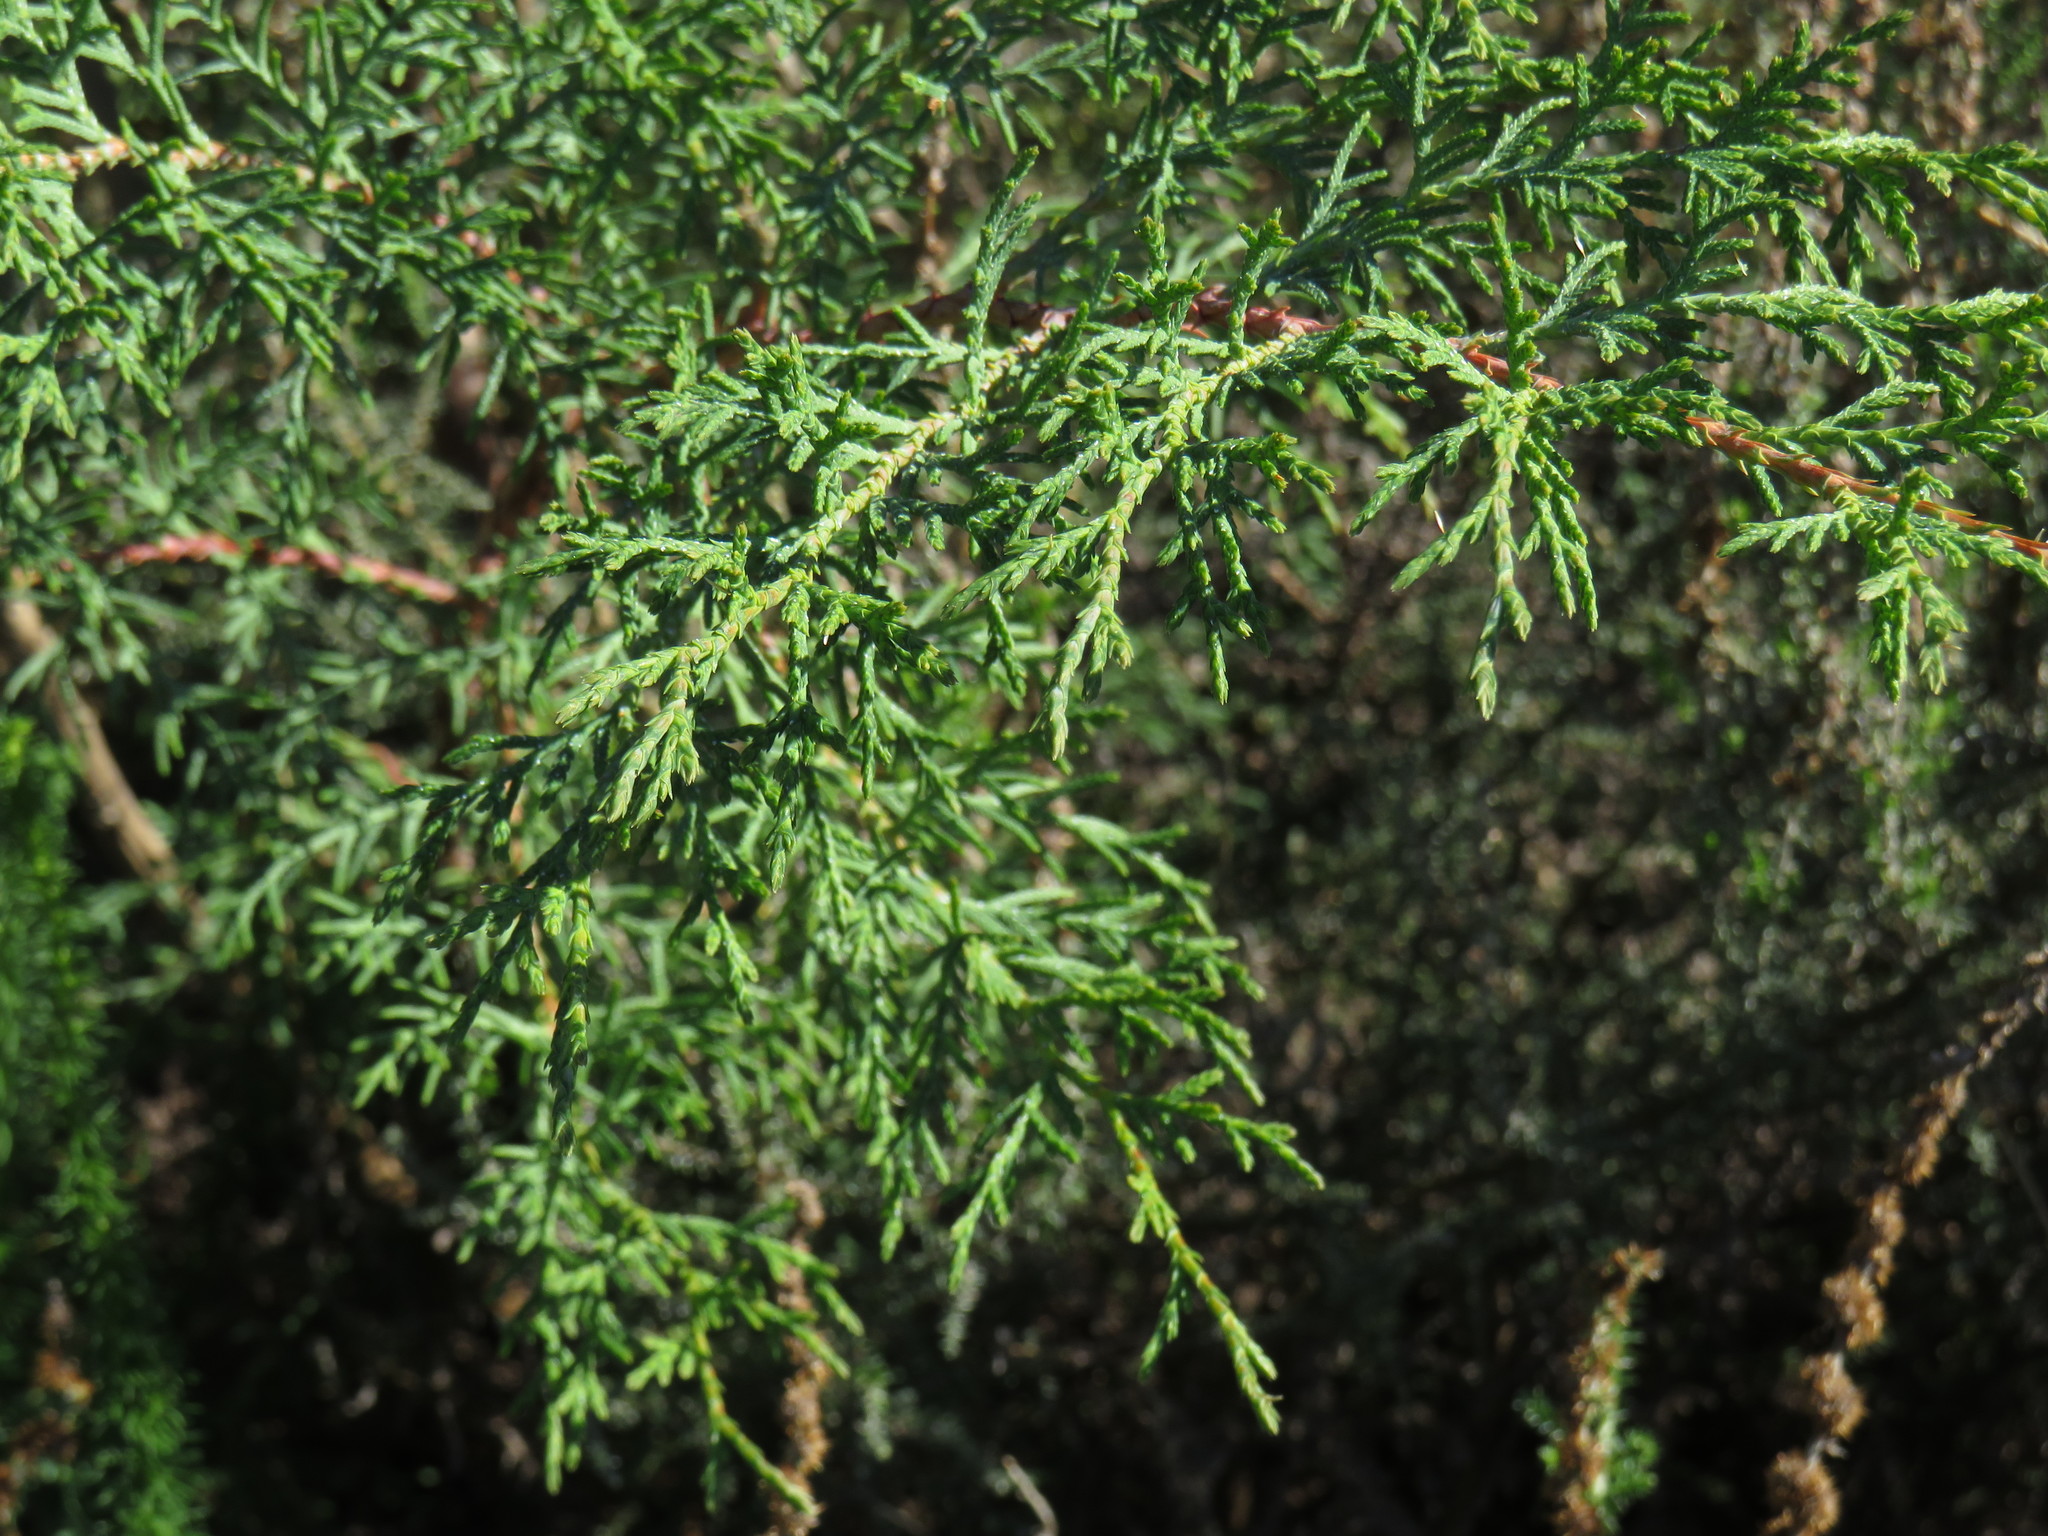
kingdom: Plantae
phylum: Tracheophyta
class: Pinopsida
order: Pinales
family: Cupressaceae
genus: Cupressus
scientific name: Cupressus lusitanica
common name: Mexican cypress
